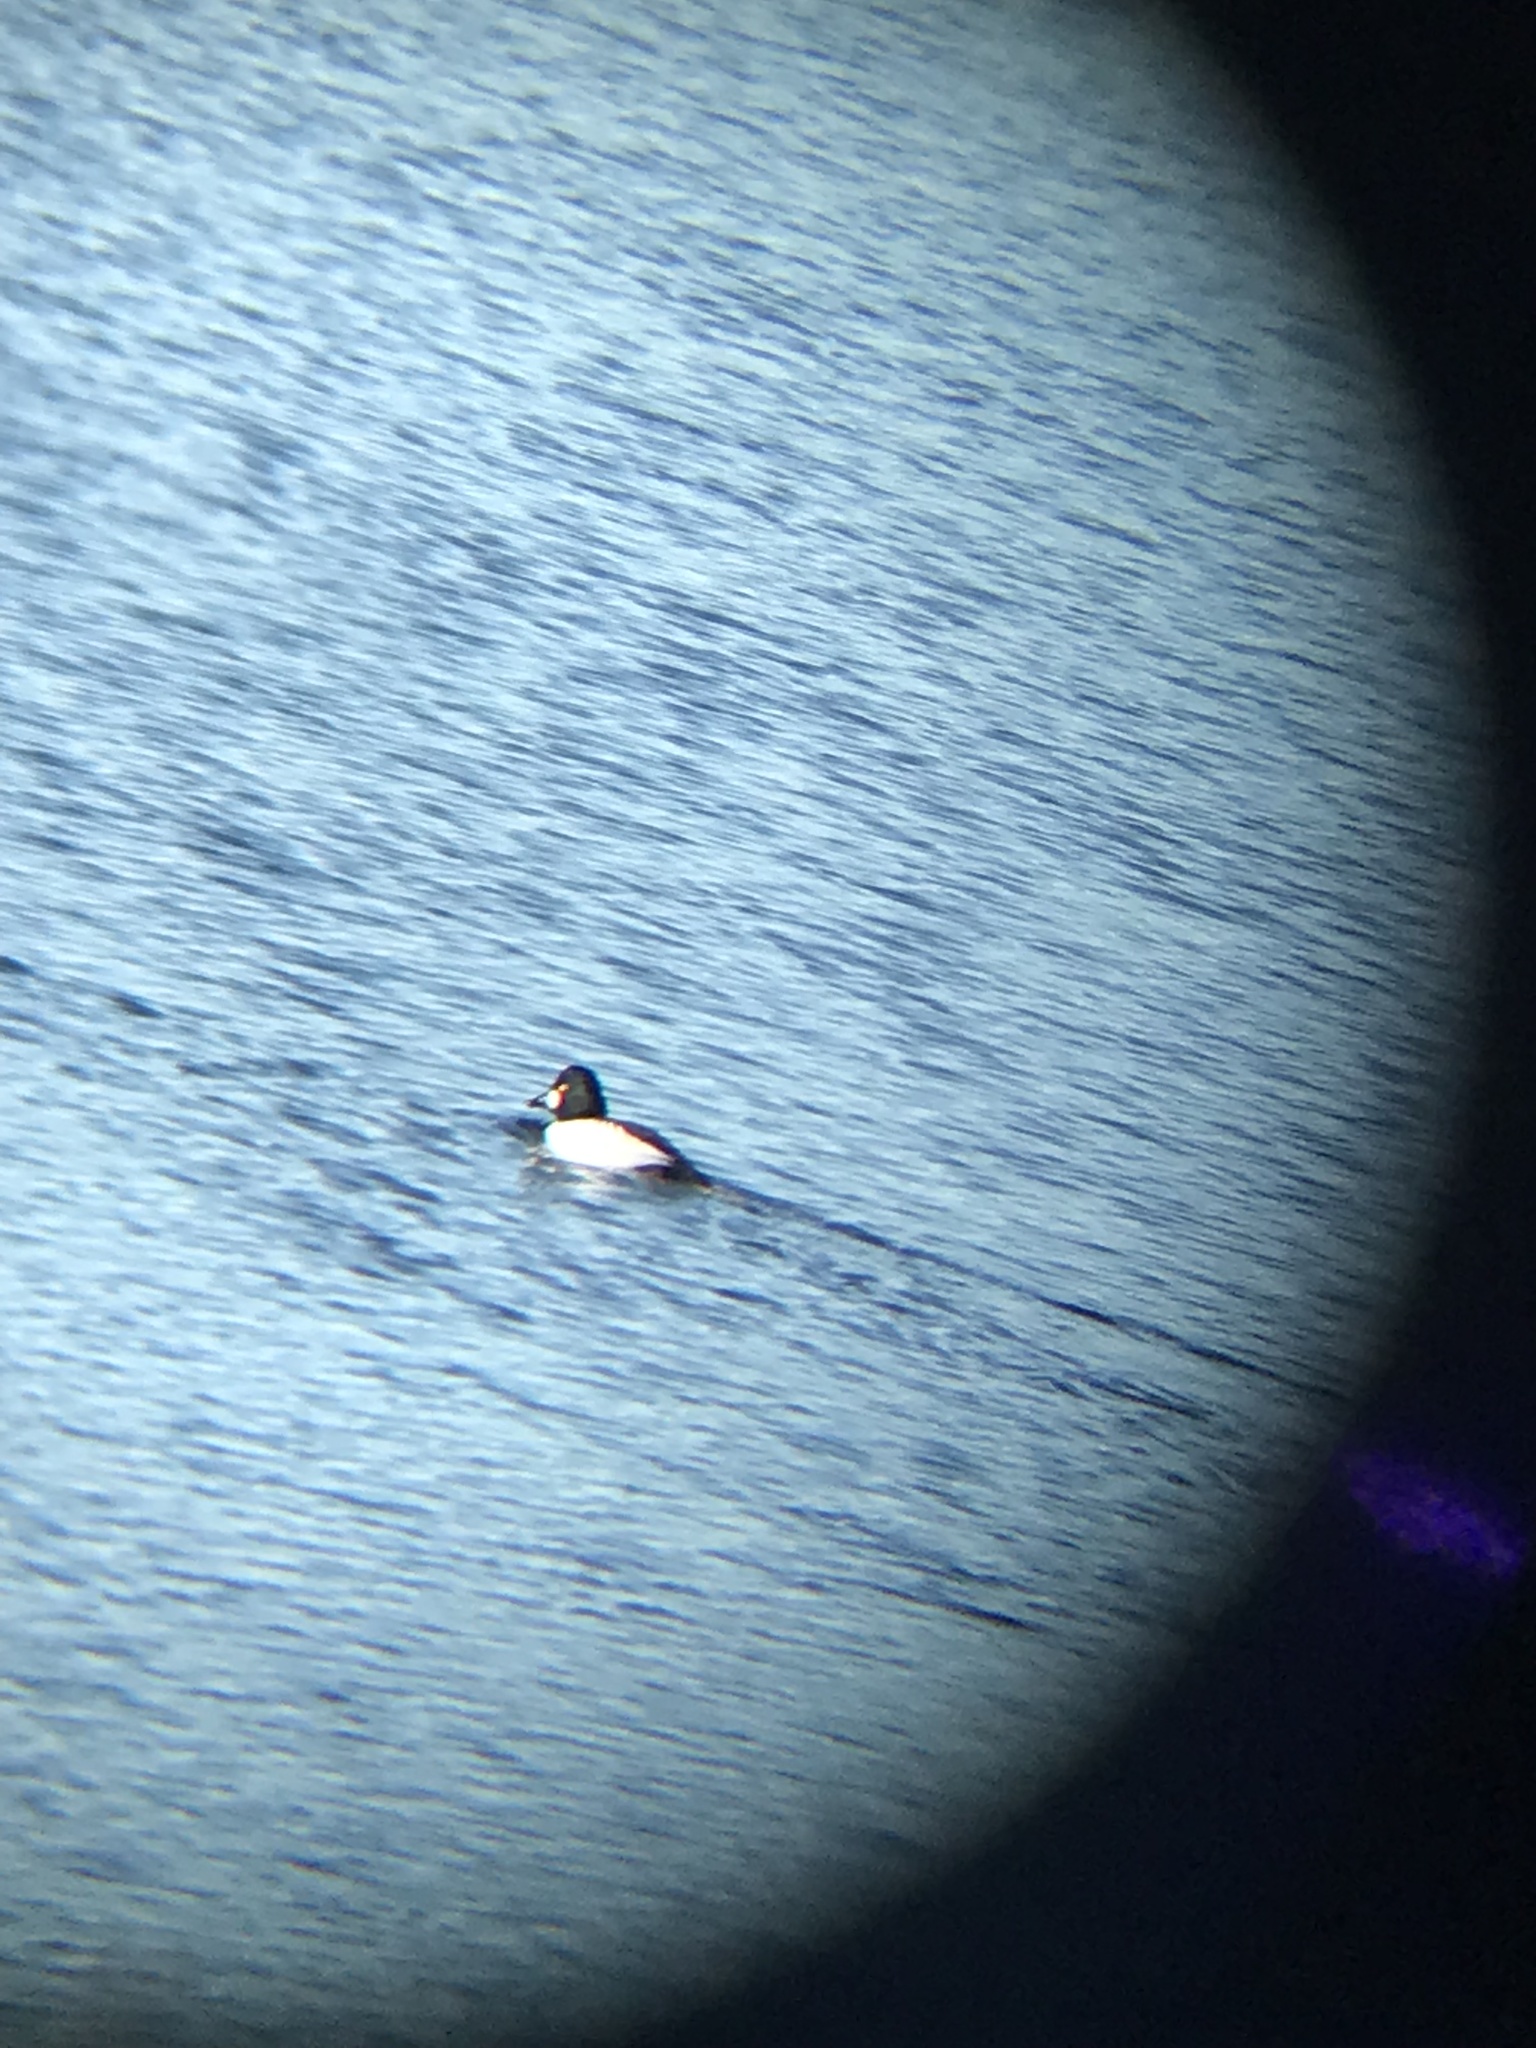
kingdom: Animalia
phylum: Chordata
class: Aves
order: Anseriformes
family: Anatidae
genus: Bucephala
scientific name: Bucephala clangula
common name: Common goldeneye
